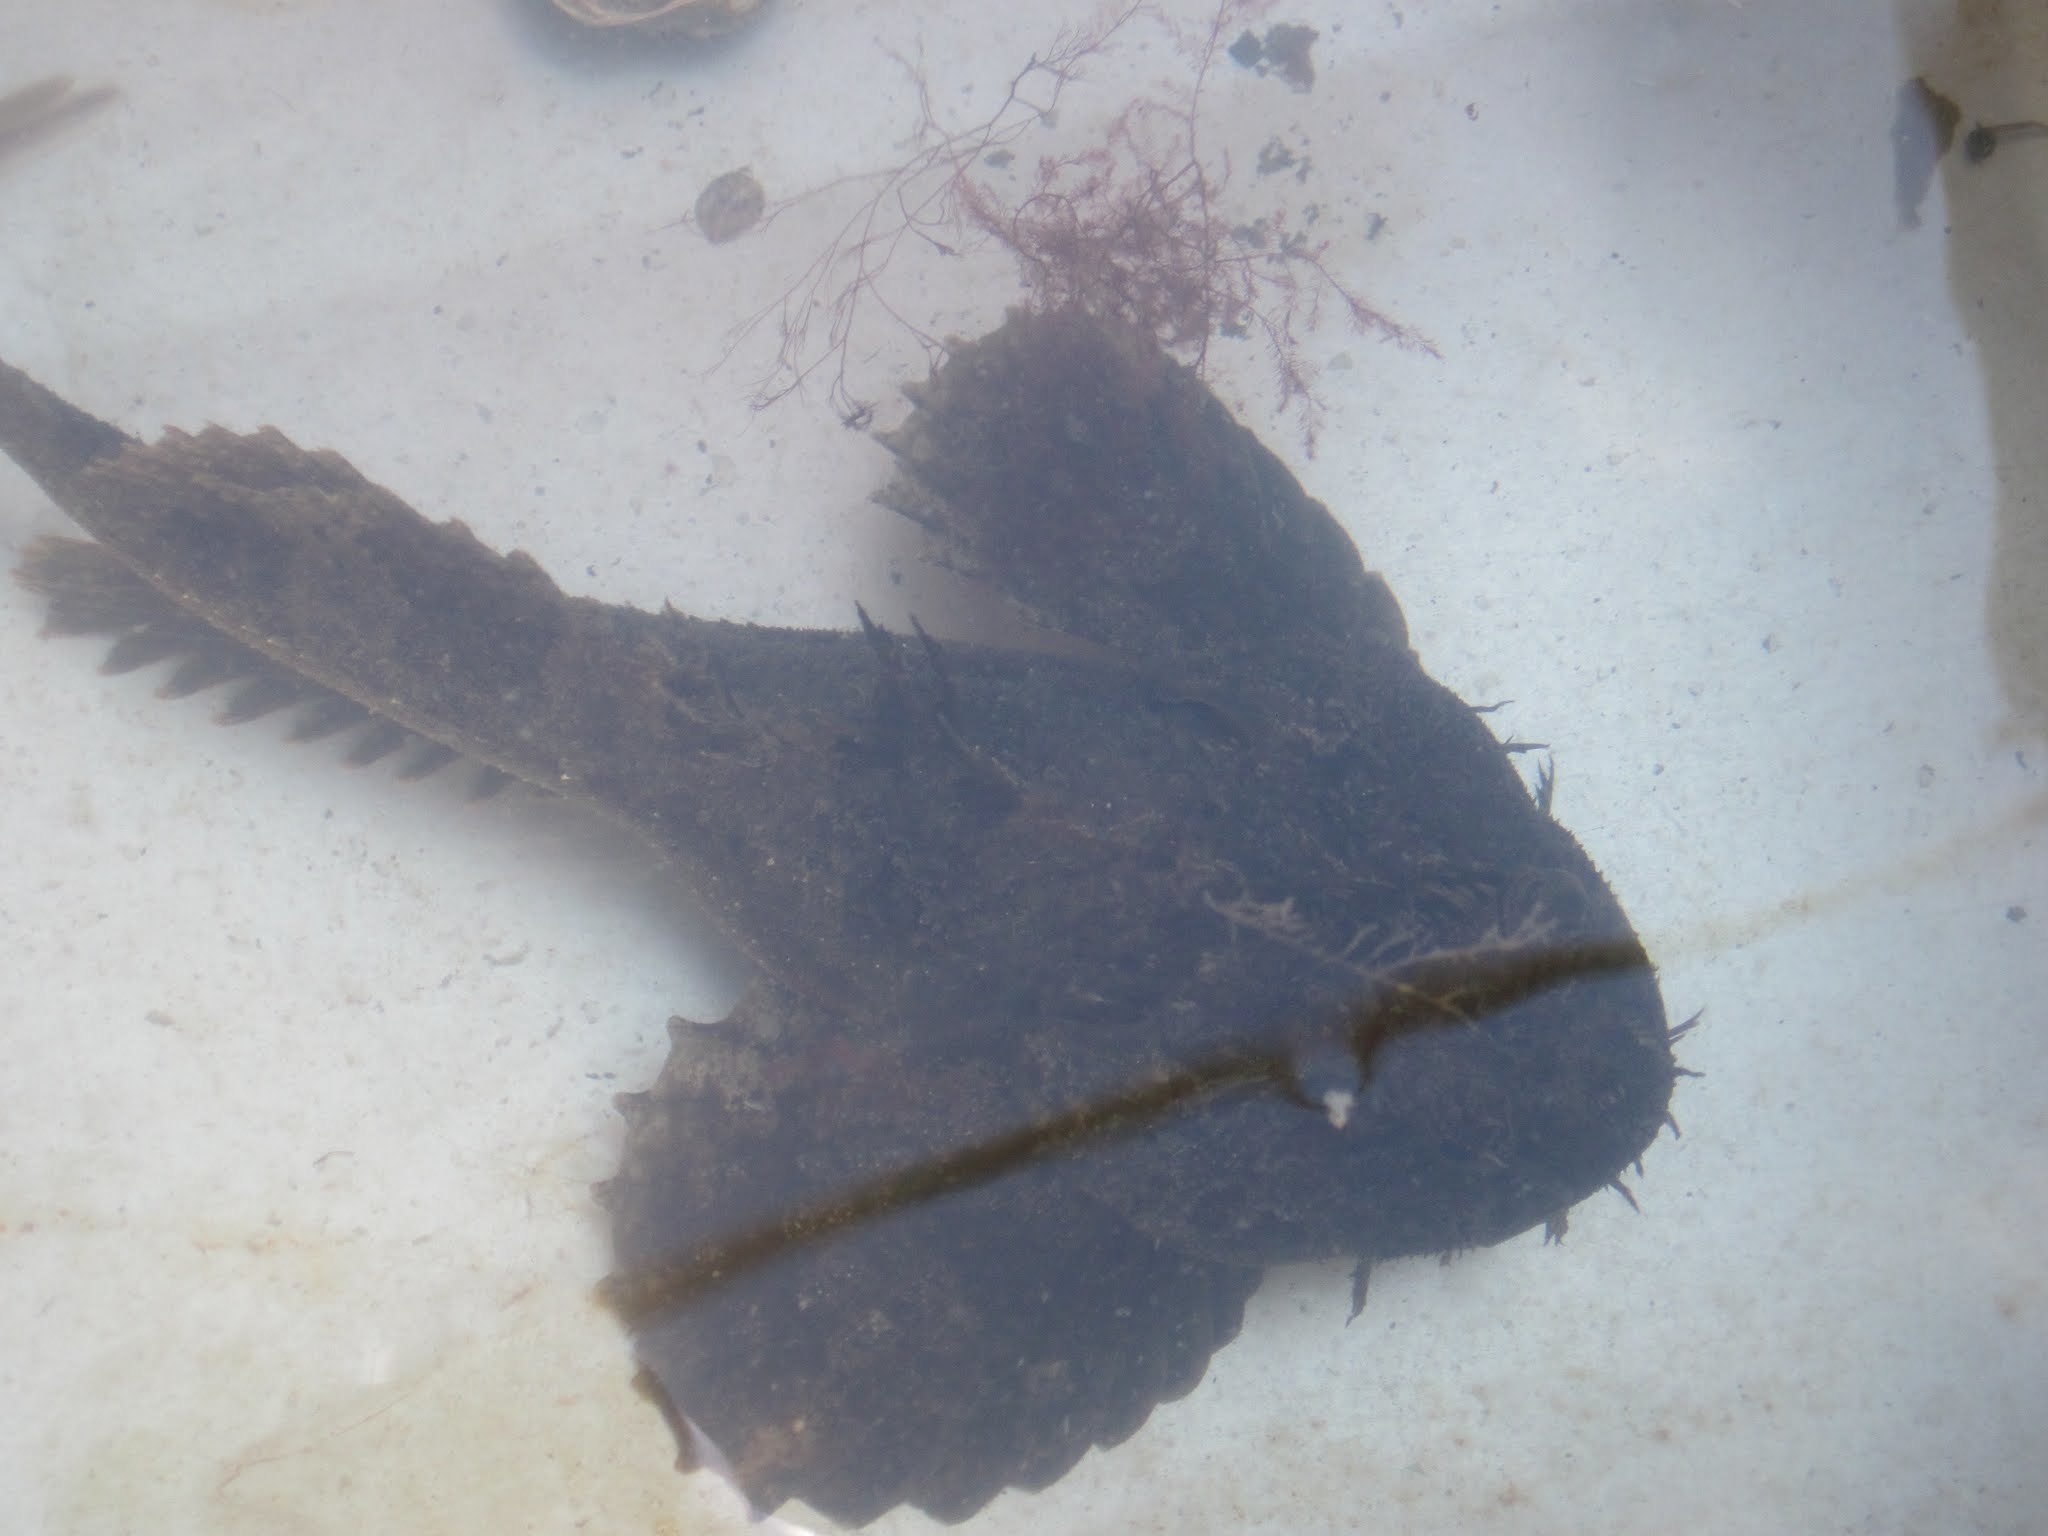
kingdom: Animalia
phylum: Chordata
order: Scorpaeniformes
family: Hemitripteridae
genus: Hemitripterus
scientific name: Hemitripterus americanus
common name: Sea raven
